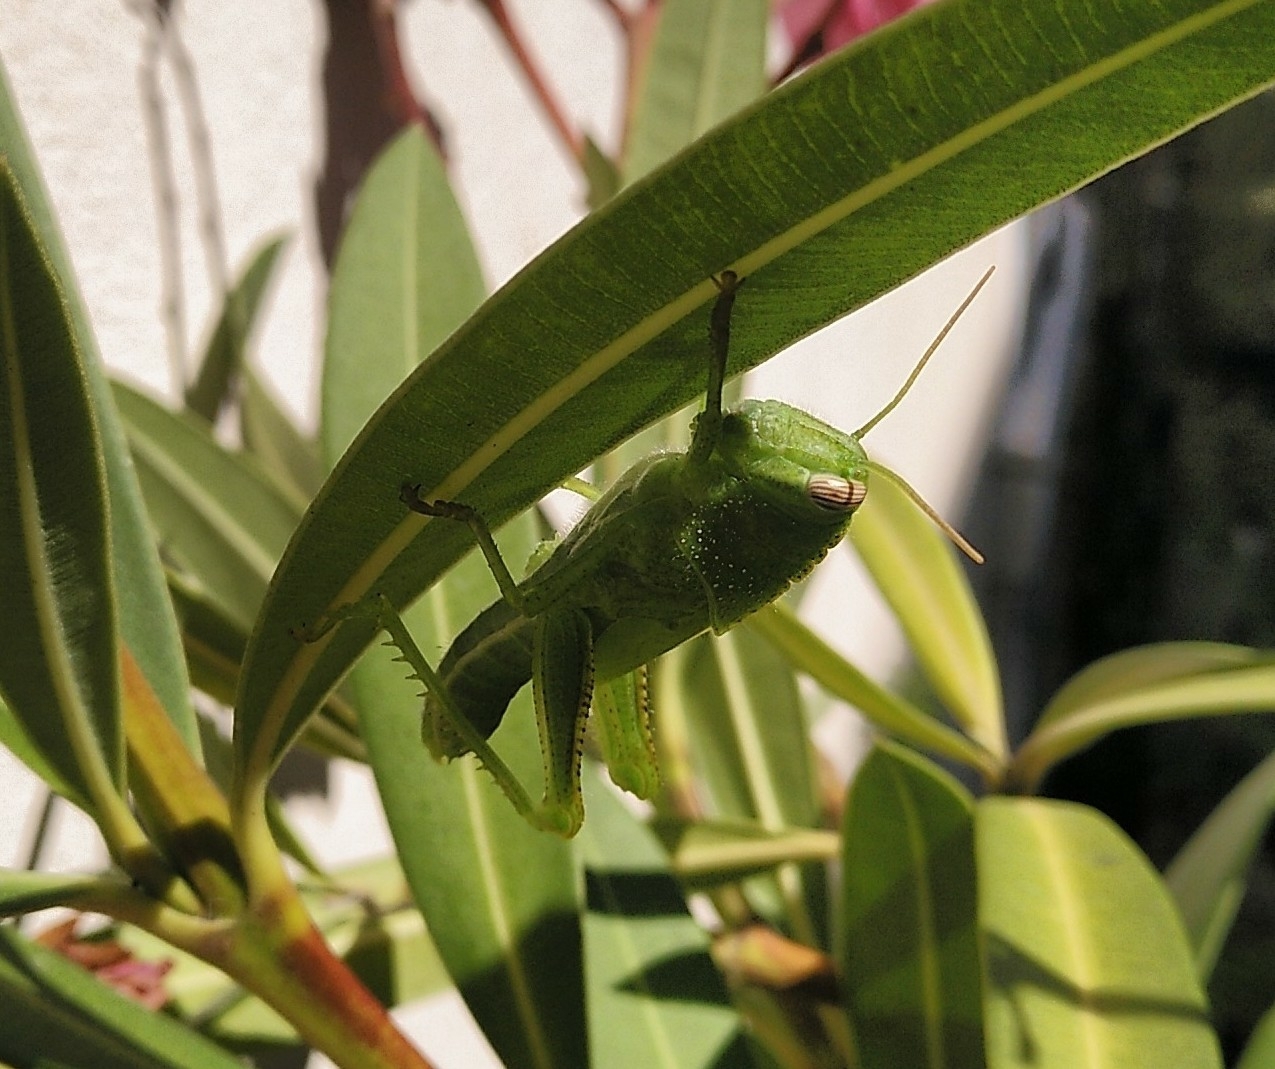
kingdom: Animalia
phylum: Arthropoda
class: Insecta
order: Orthoptera
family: Acrididae
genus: Anacridium
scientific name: Anacridium aegyptium
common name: Egyptian grasshopper
